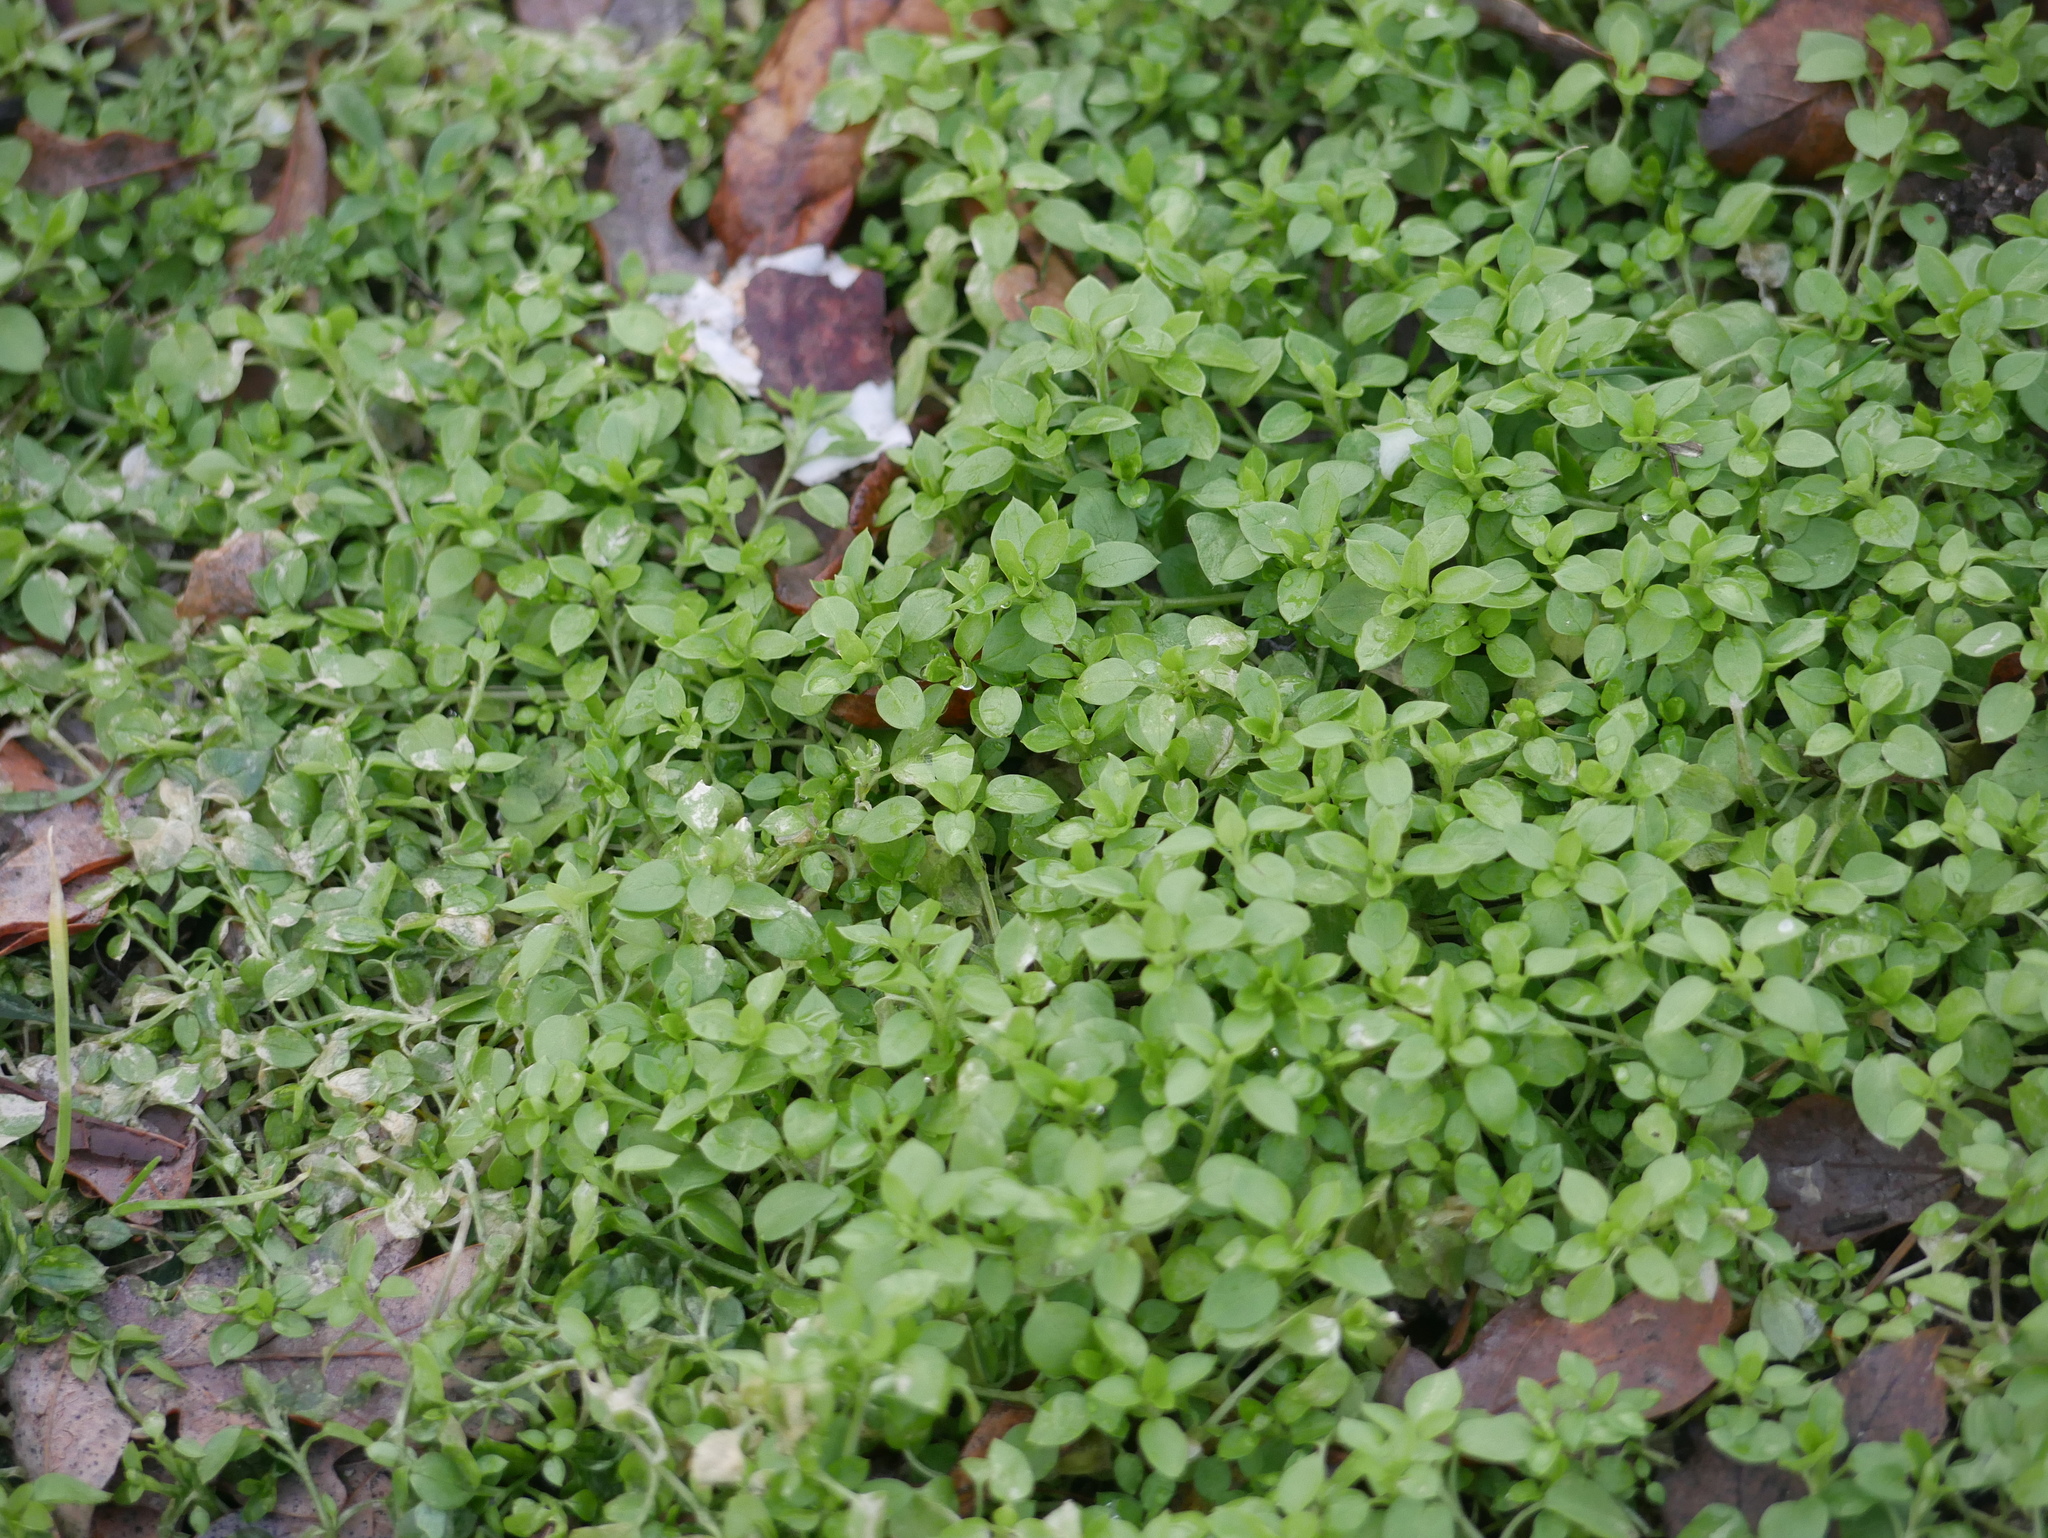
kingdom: Plantae
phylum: Tracheophyta
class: Magnoliopsida
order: Caryophyllales
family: Caryophyllaceae
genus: Stellaria
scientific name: Stellaria media
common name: Common chickweed
